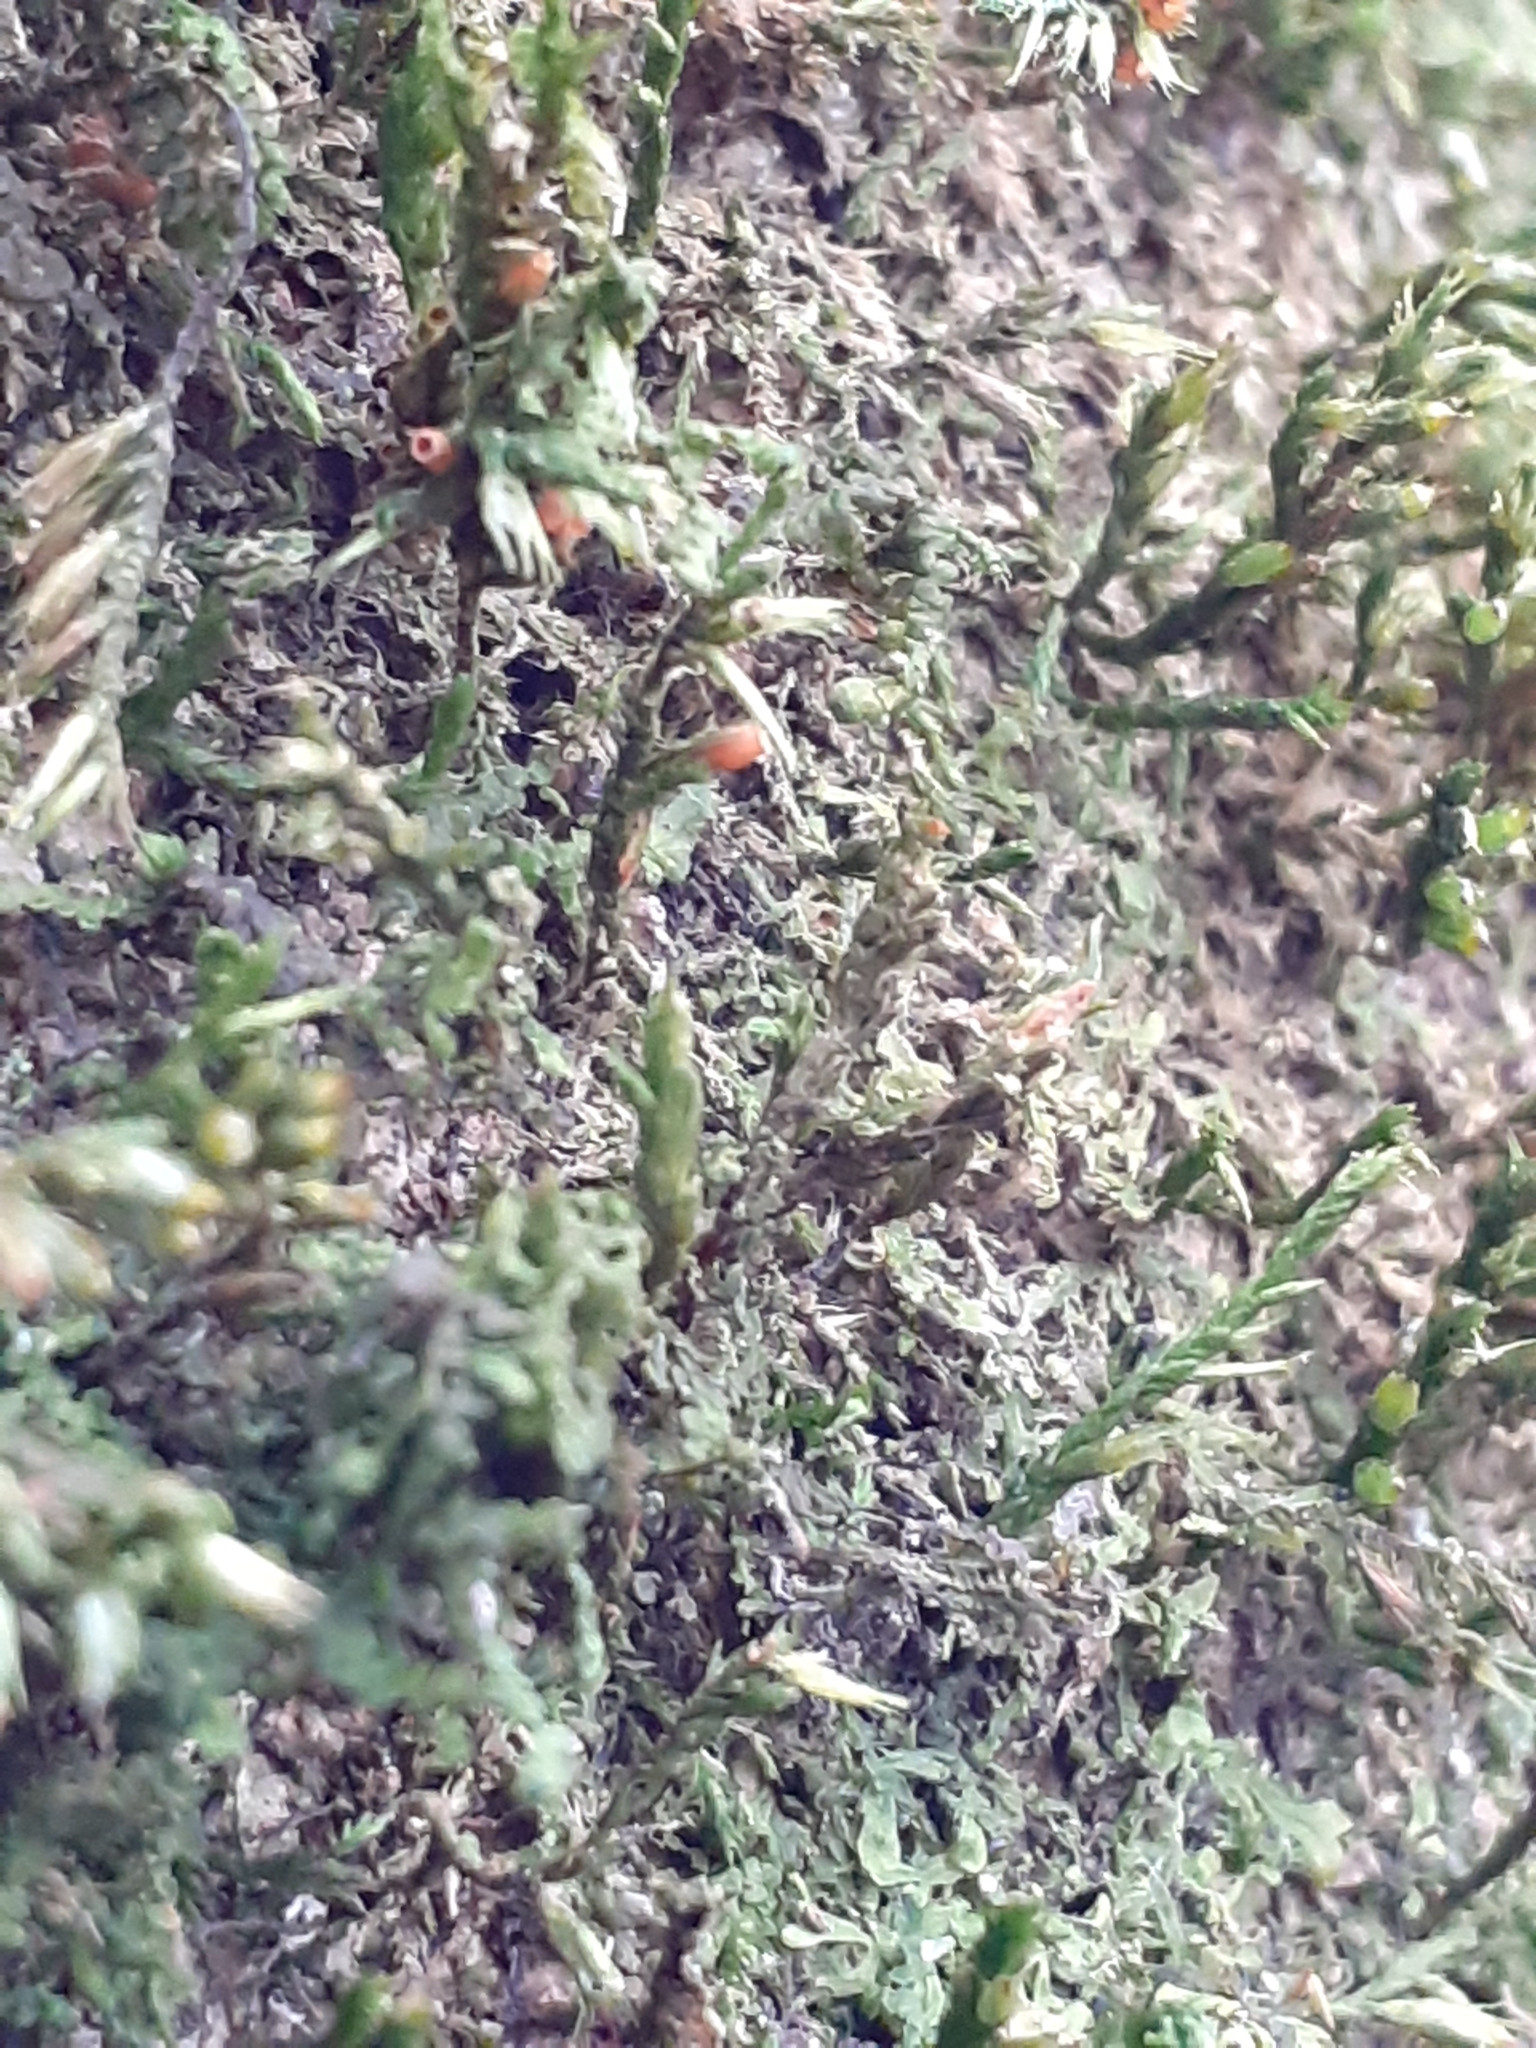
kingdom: Plantae
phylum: Bryophyta
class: Bryopsida
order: Hypnales
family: Cryphaeaceae
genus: Cryphaea
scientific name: Cryphaea heteromalla
